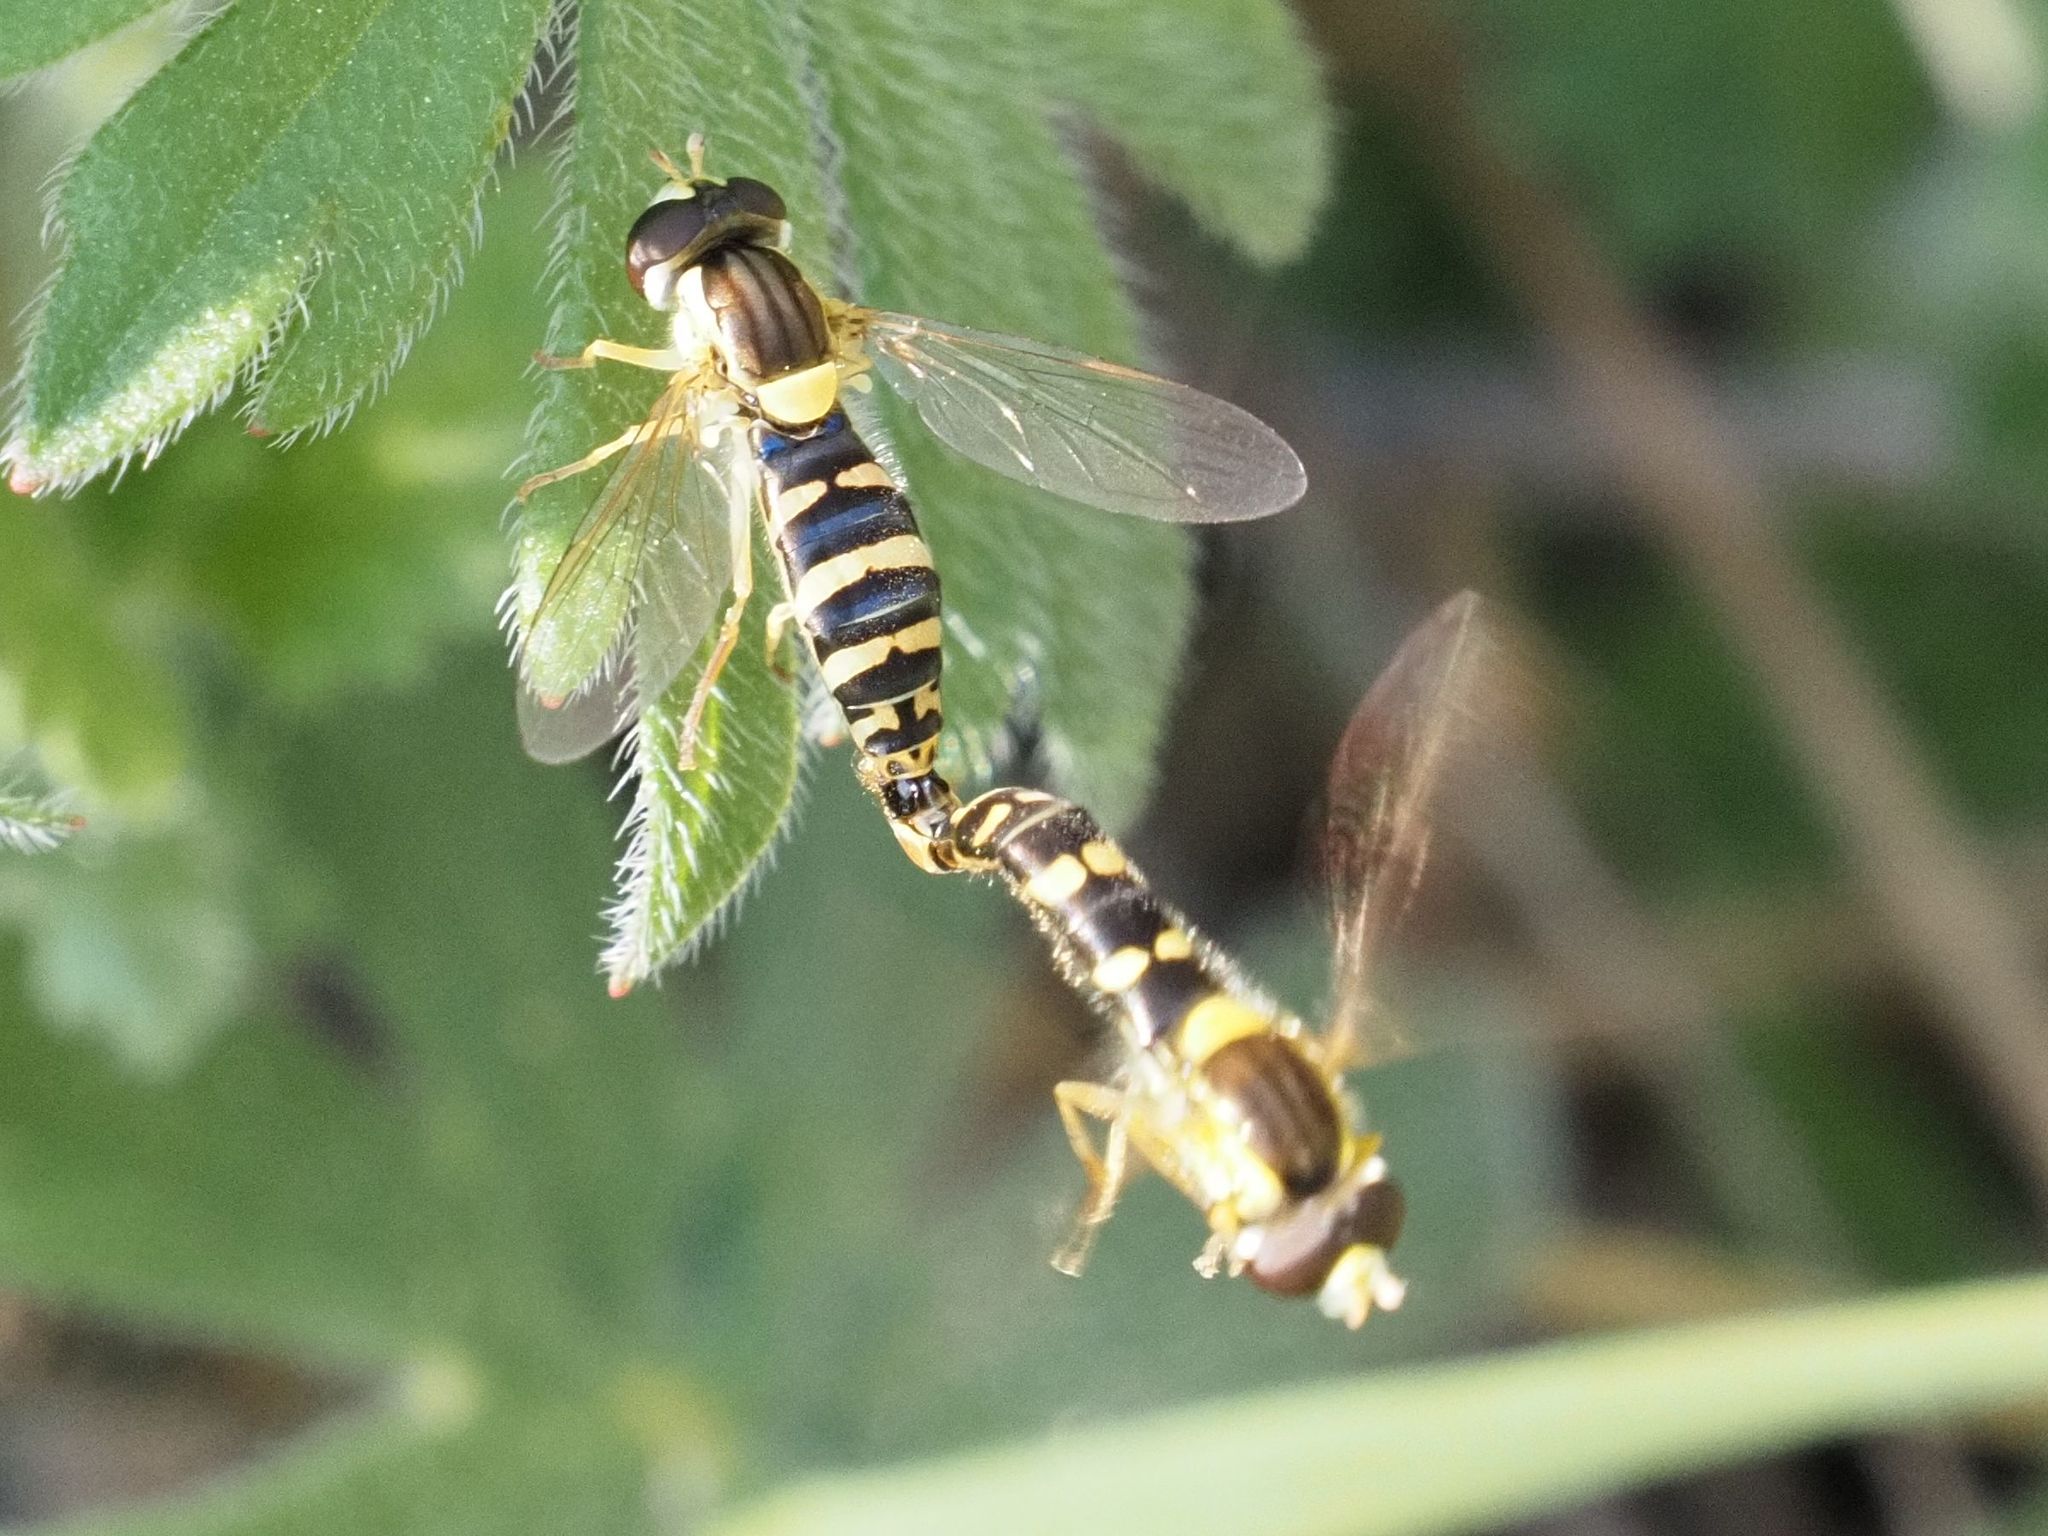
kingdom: Animalia
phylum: Arthropoda
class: Insecta
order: Diptera
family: Syrphidae
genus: Sphaerophoria
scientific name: Sphaerophoria
